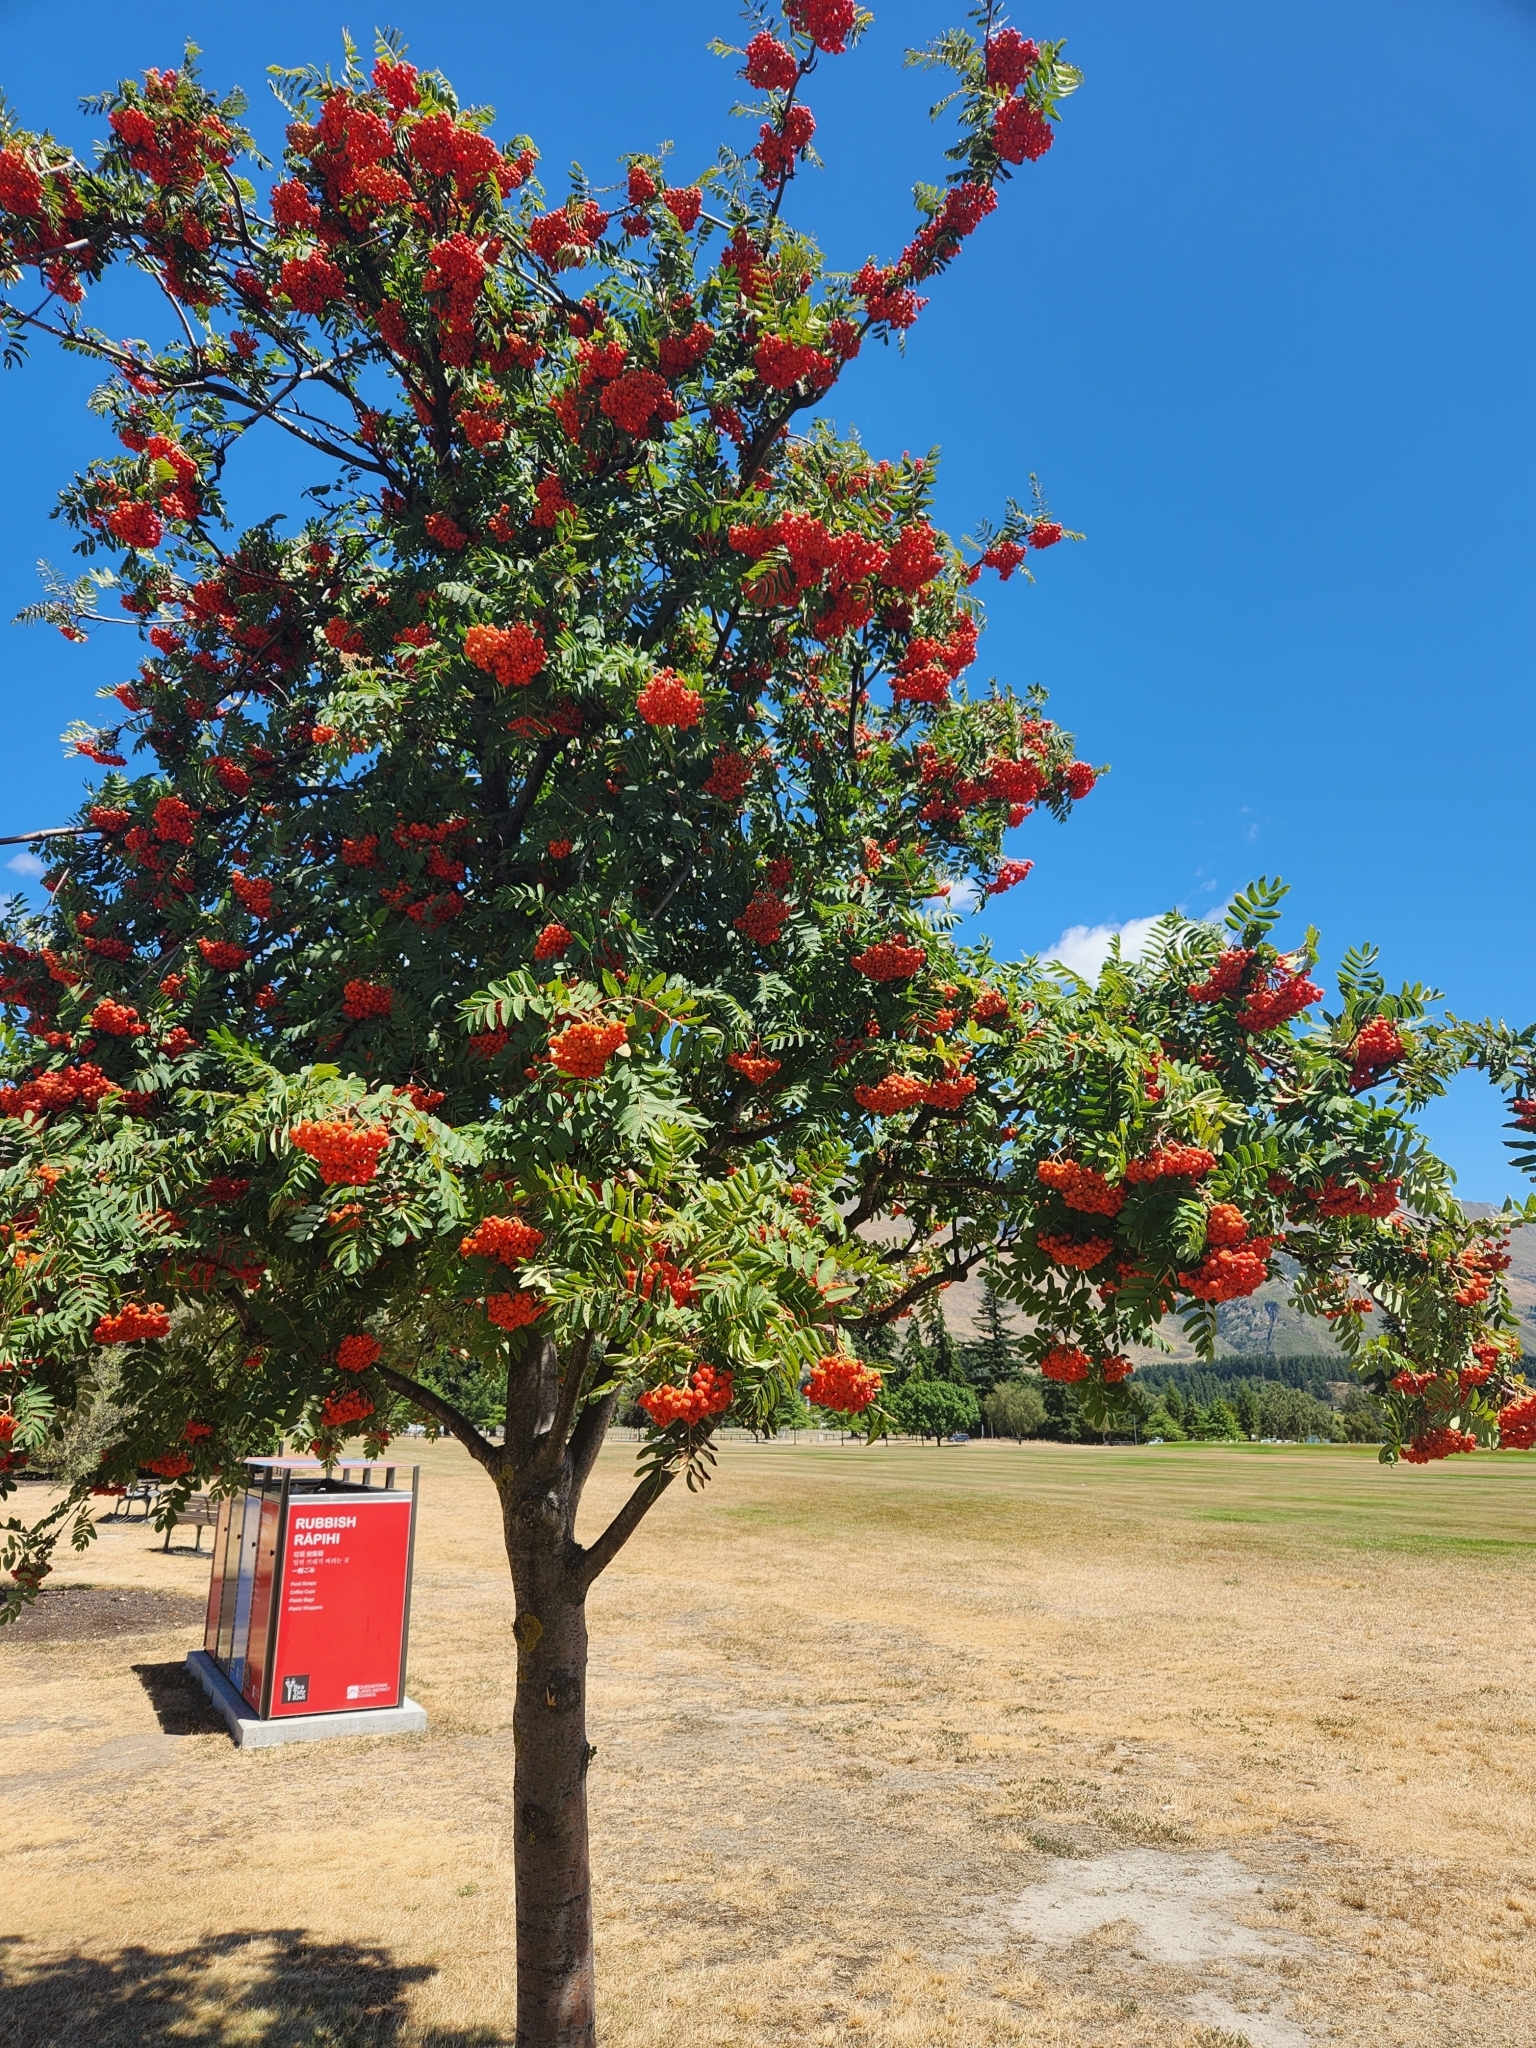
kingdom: Plantae
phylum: Tracheophyta
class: Magnoliopsida
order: Rosales
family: Rosaceae
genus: Sorbus
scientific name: Sorbus aucuparia
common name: Rowan
